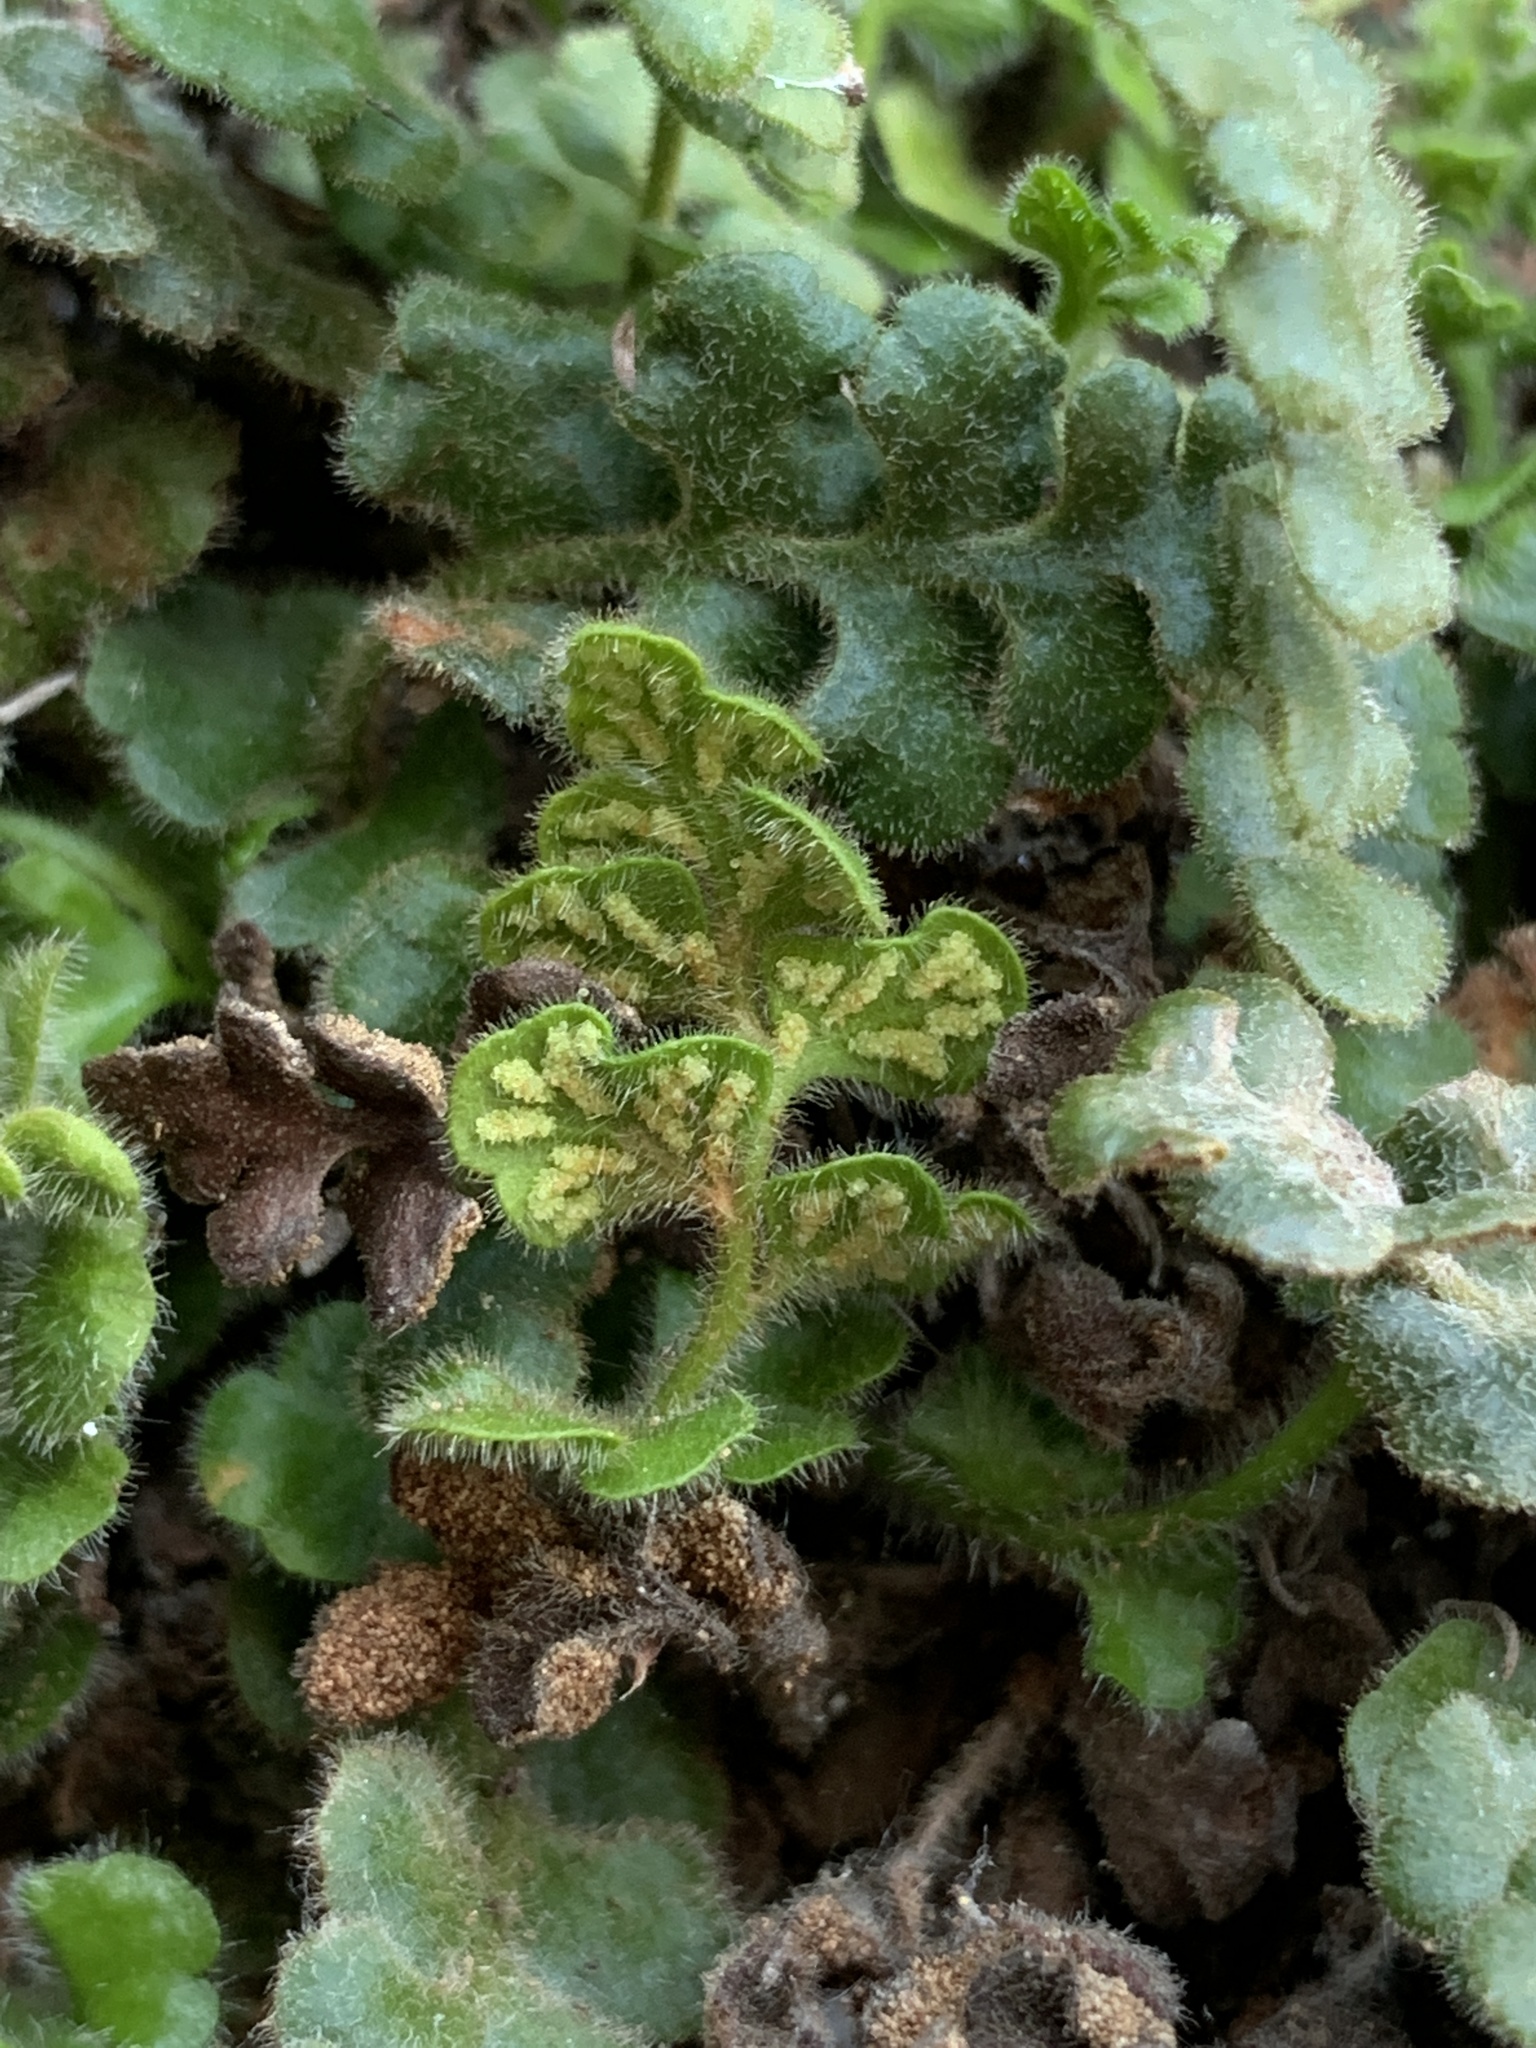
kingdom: Plantae
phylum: Tracheophyta
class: Polypodiopsida
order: Polypodiales
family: Aspleniaceae
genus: Asplenium
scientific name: Asplenium subglandulosum
